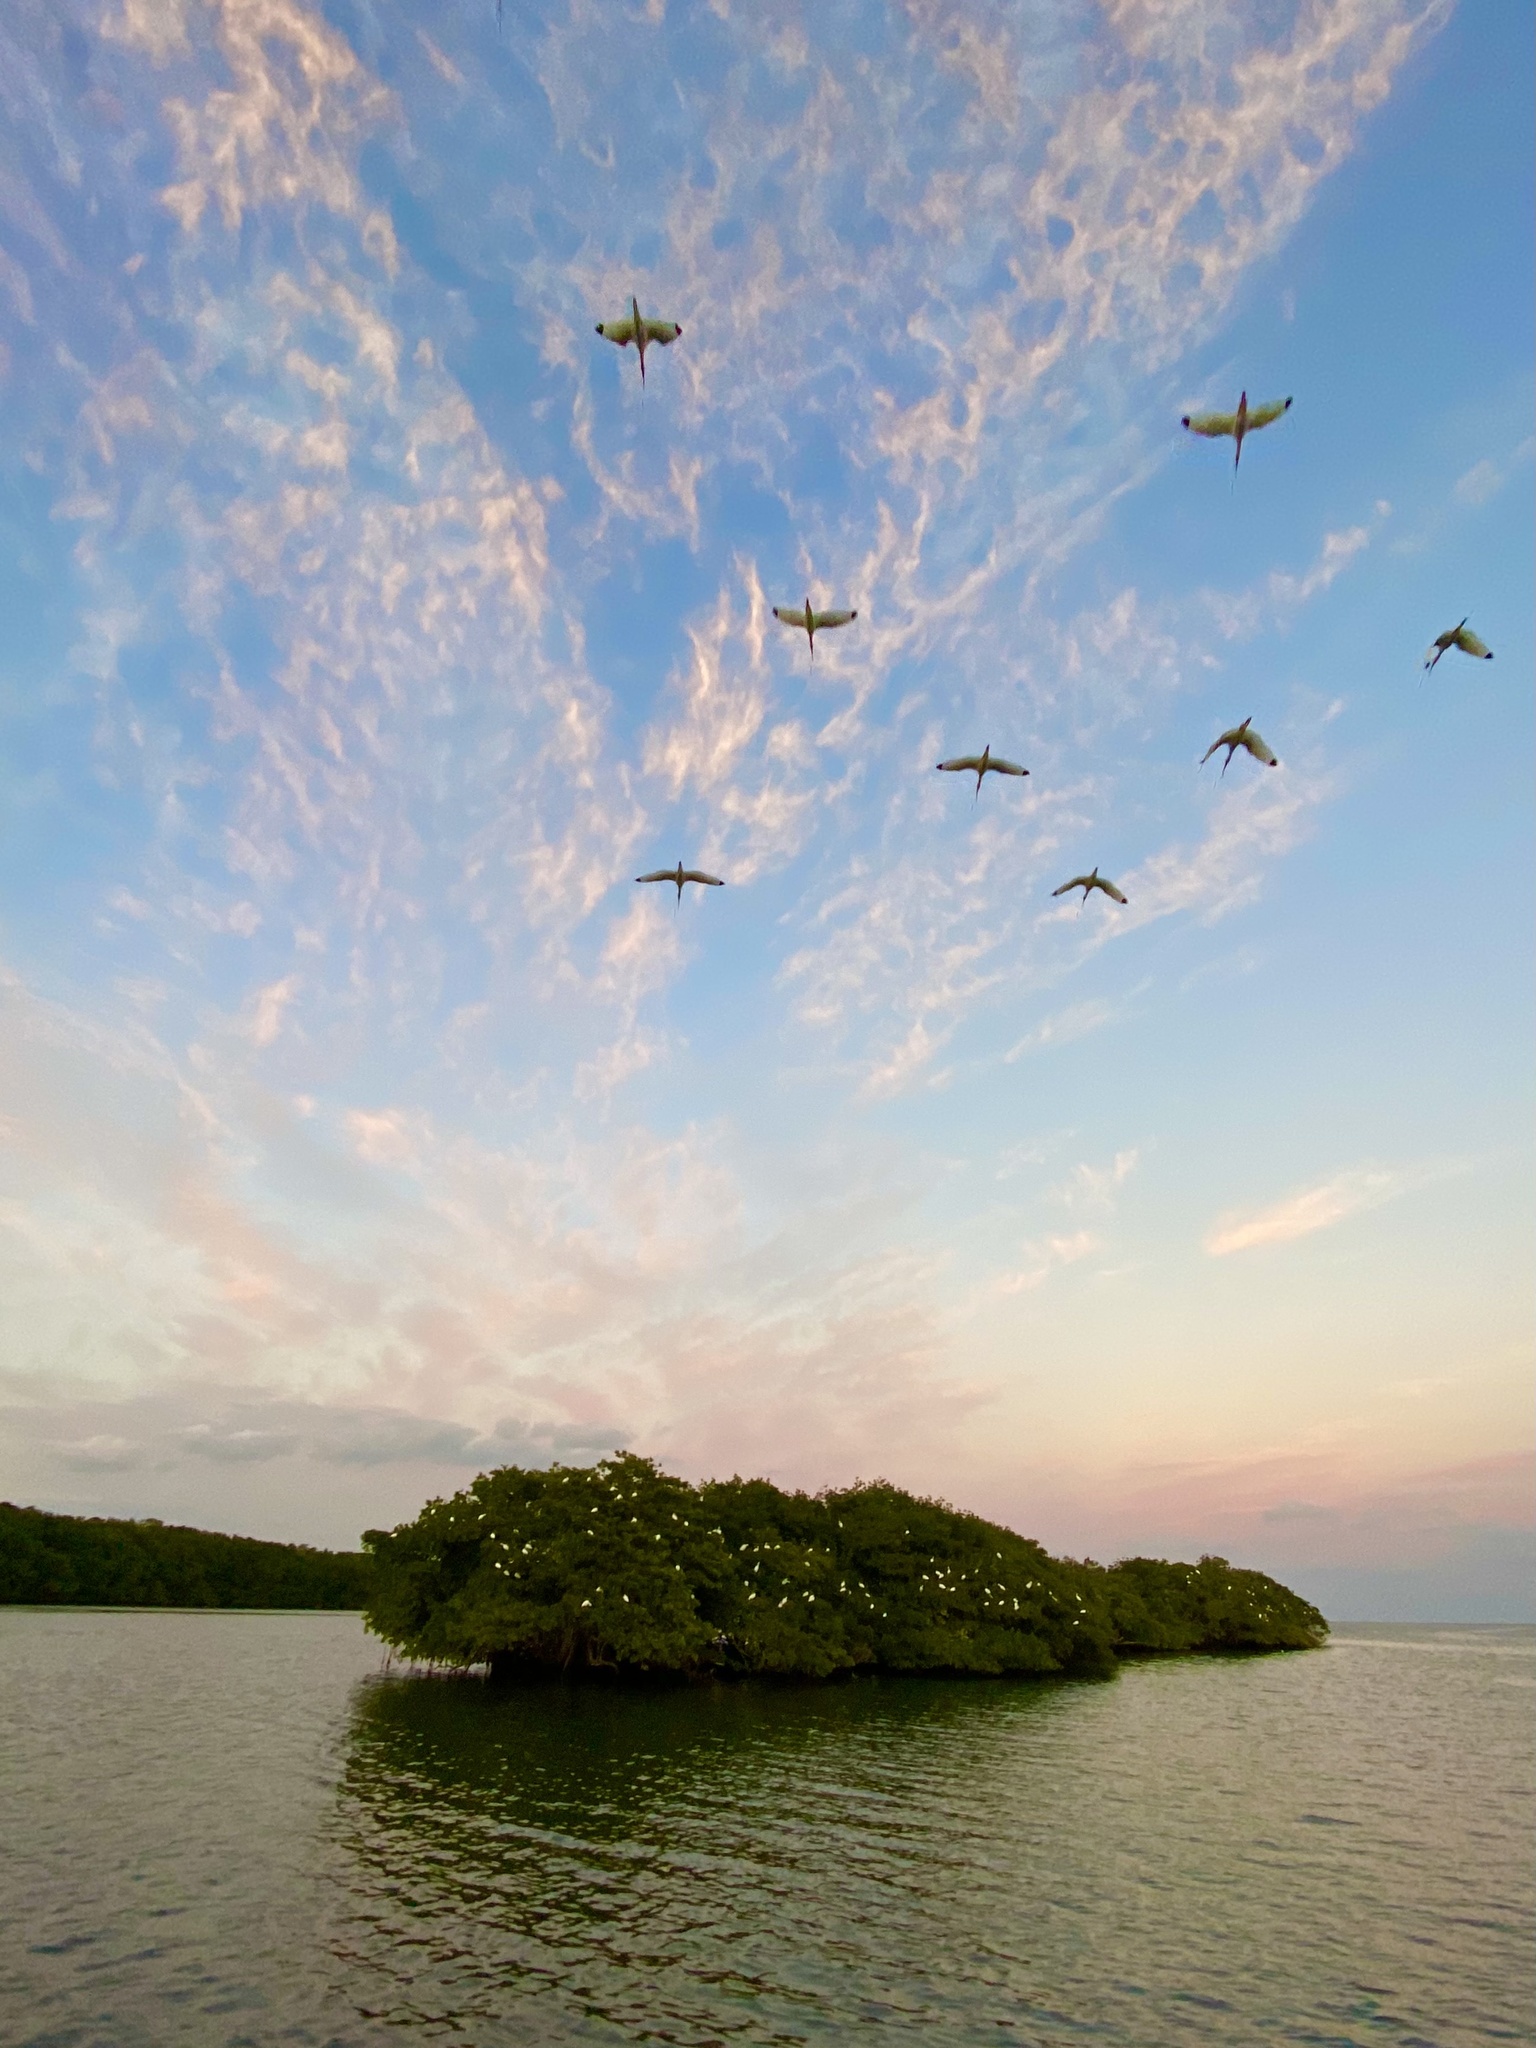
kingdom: Animalia
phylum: Chordata
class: Aves
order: Pelecaniformes
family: Threskiornithidae
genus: Eudocimus
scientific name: Eudocimus albus
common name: White ibis
